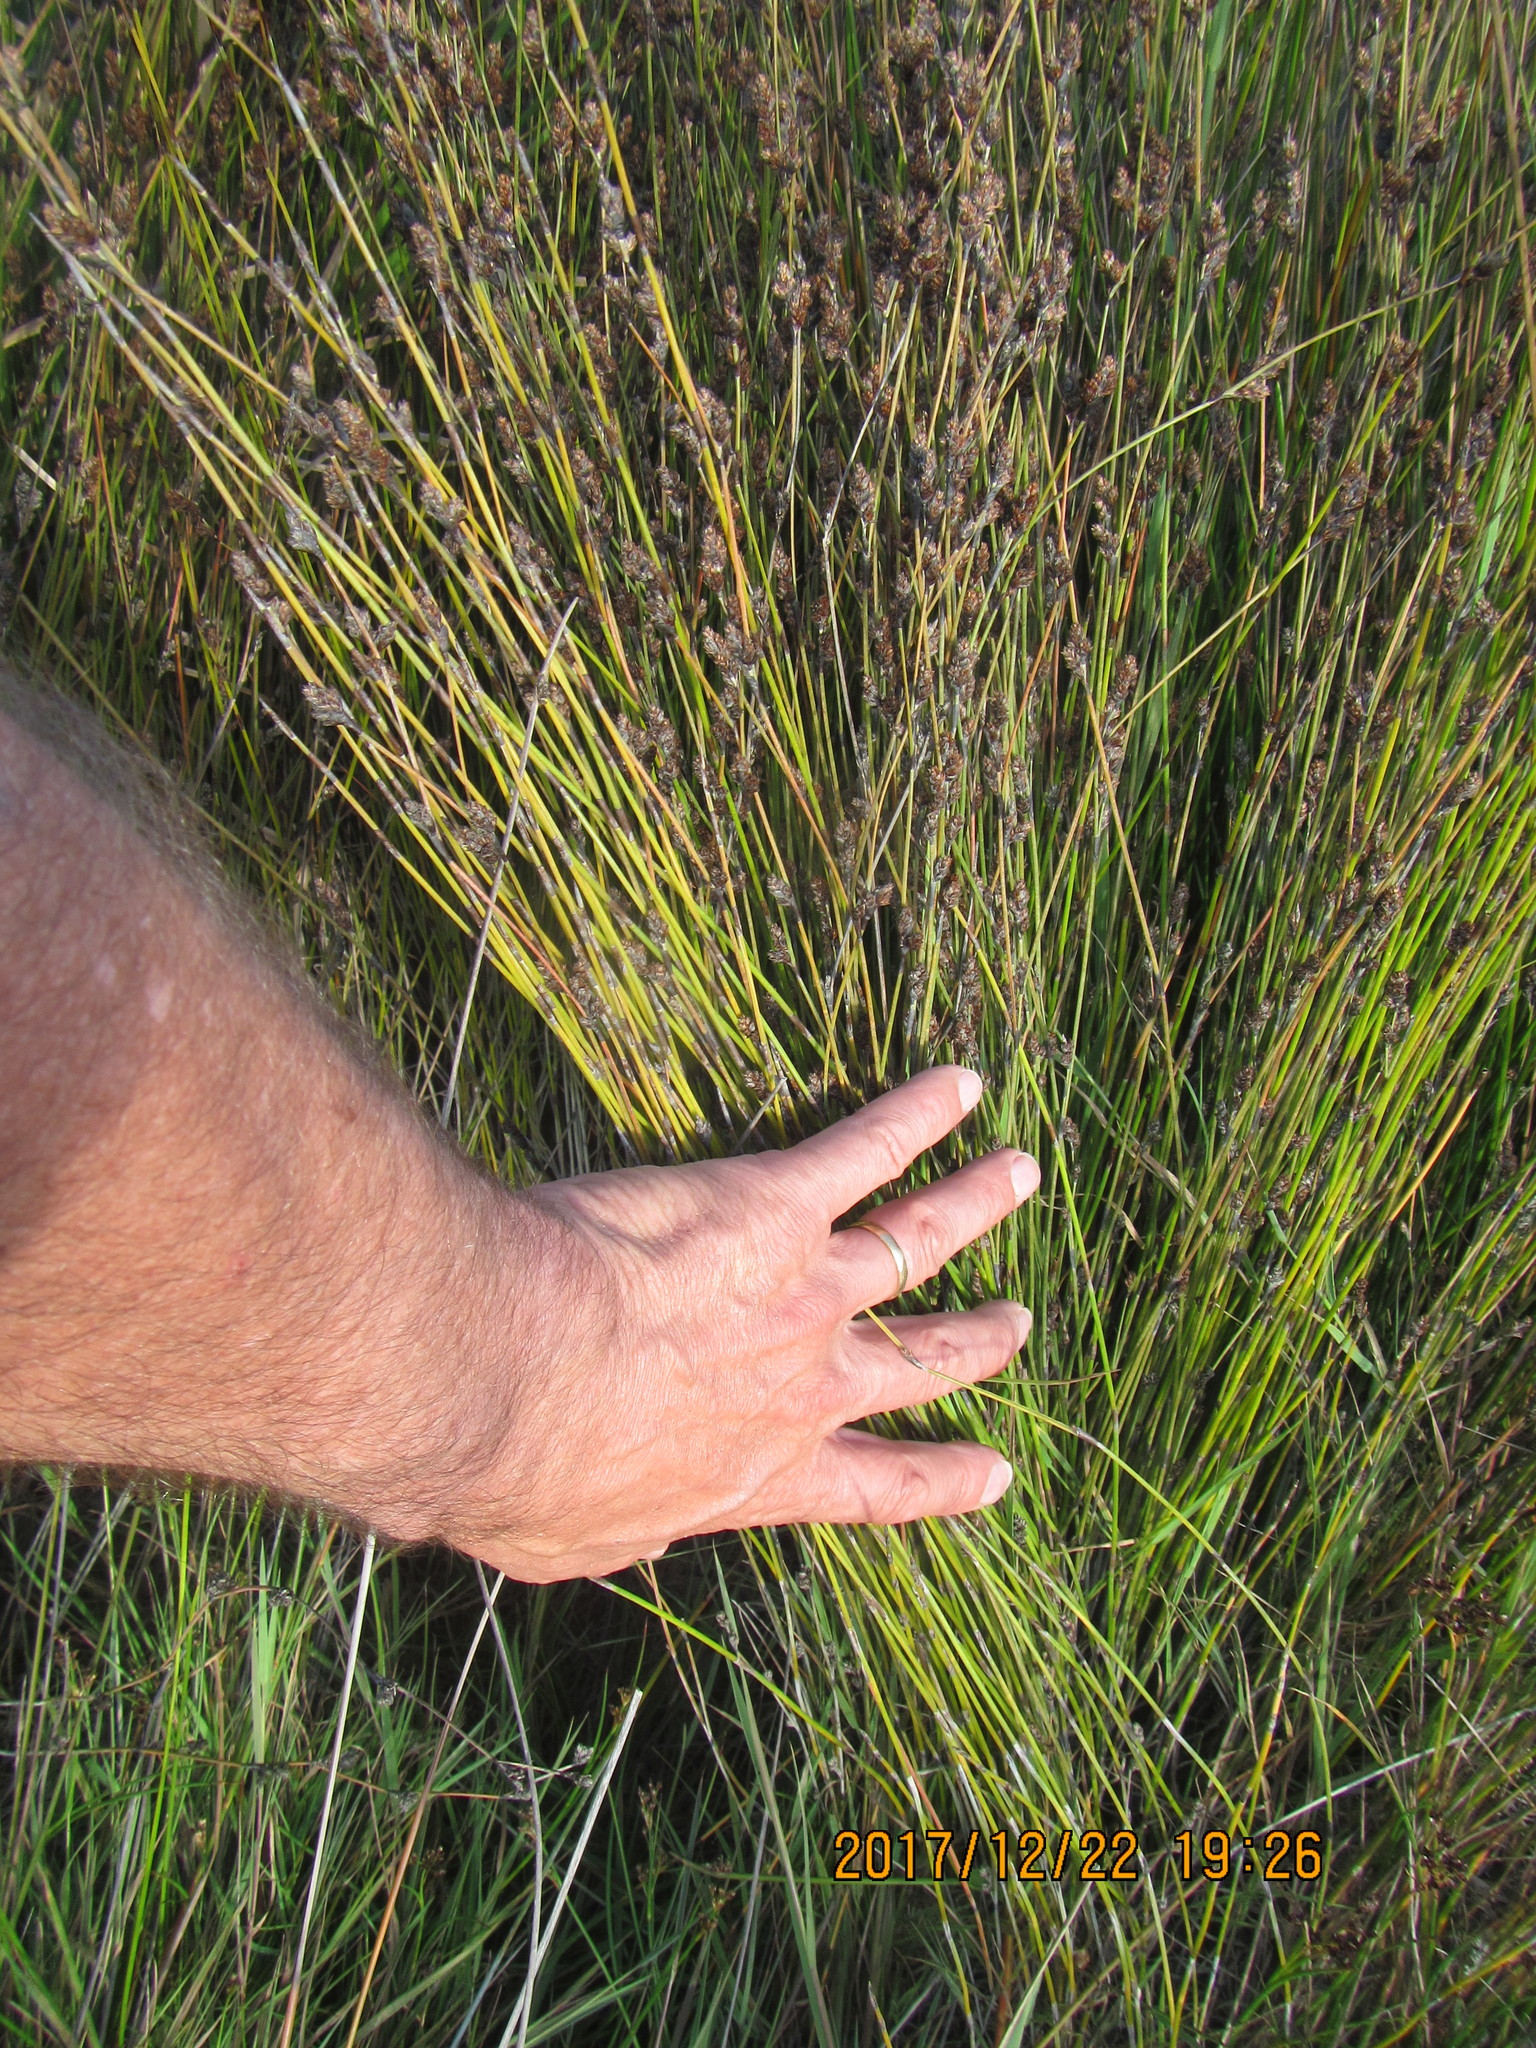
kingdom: Plantae
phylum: Tracheophyta
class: Liliopsida
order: Poales
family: Restionaceae
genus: Apodasmia
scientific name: Apodasmia similis
